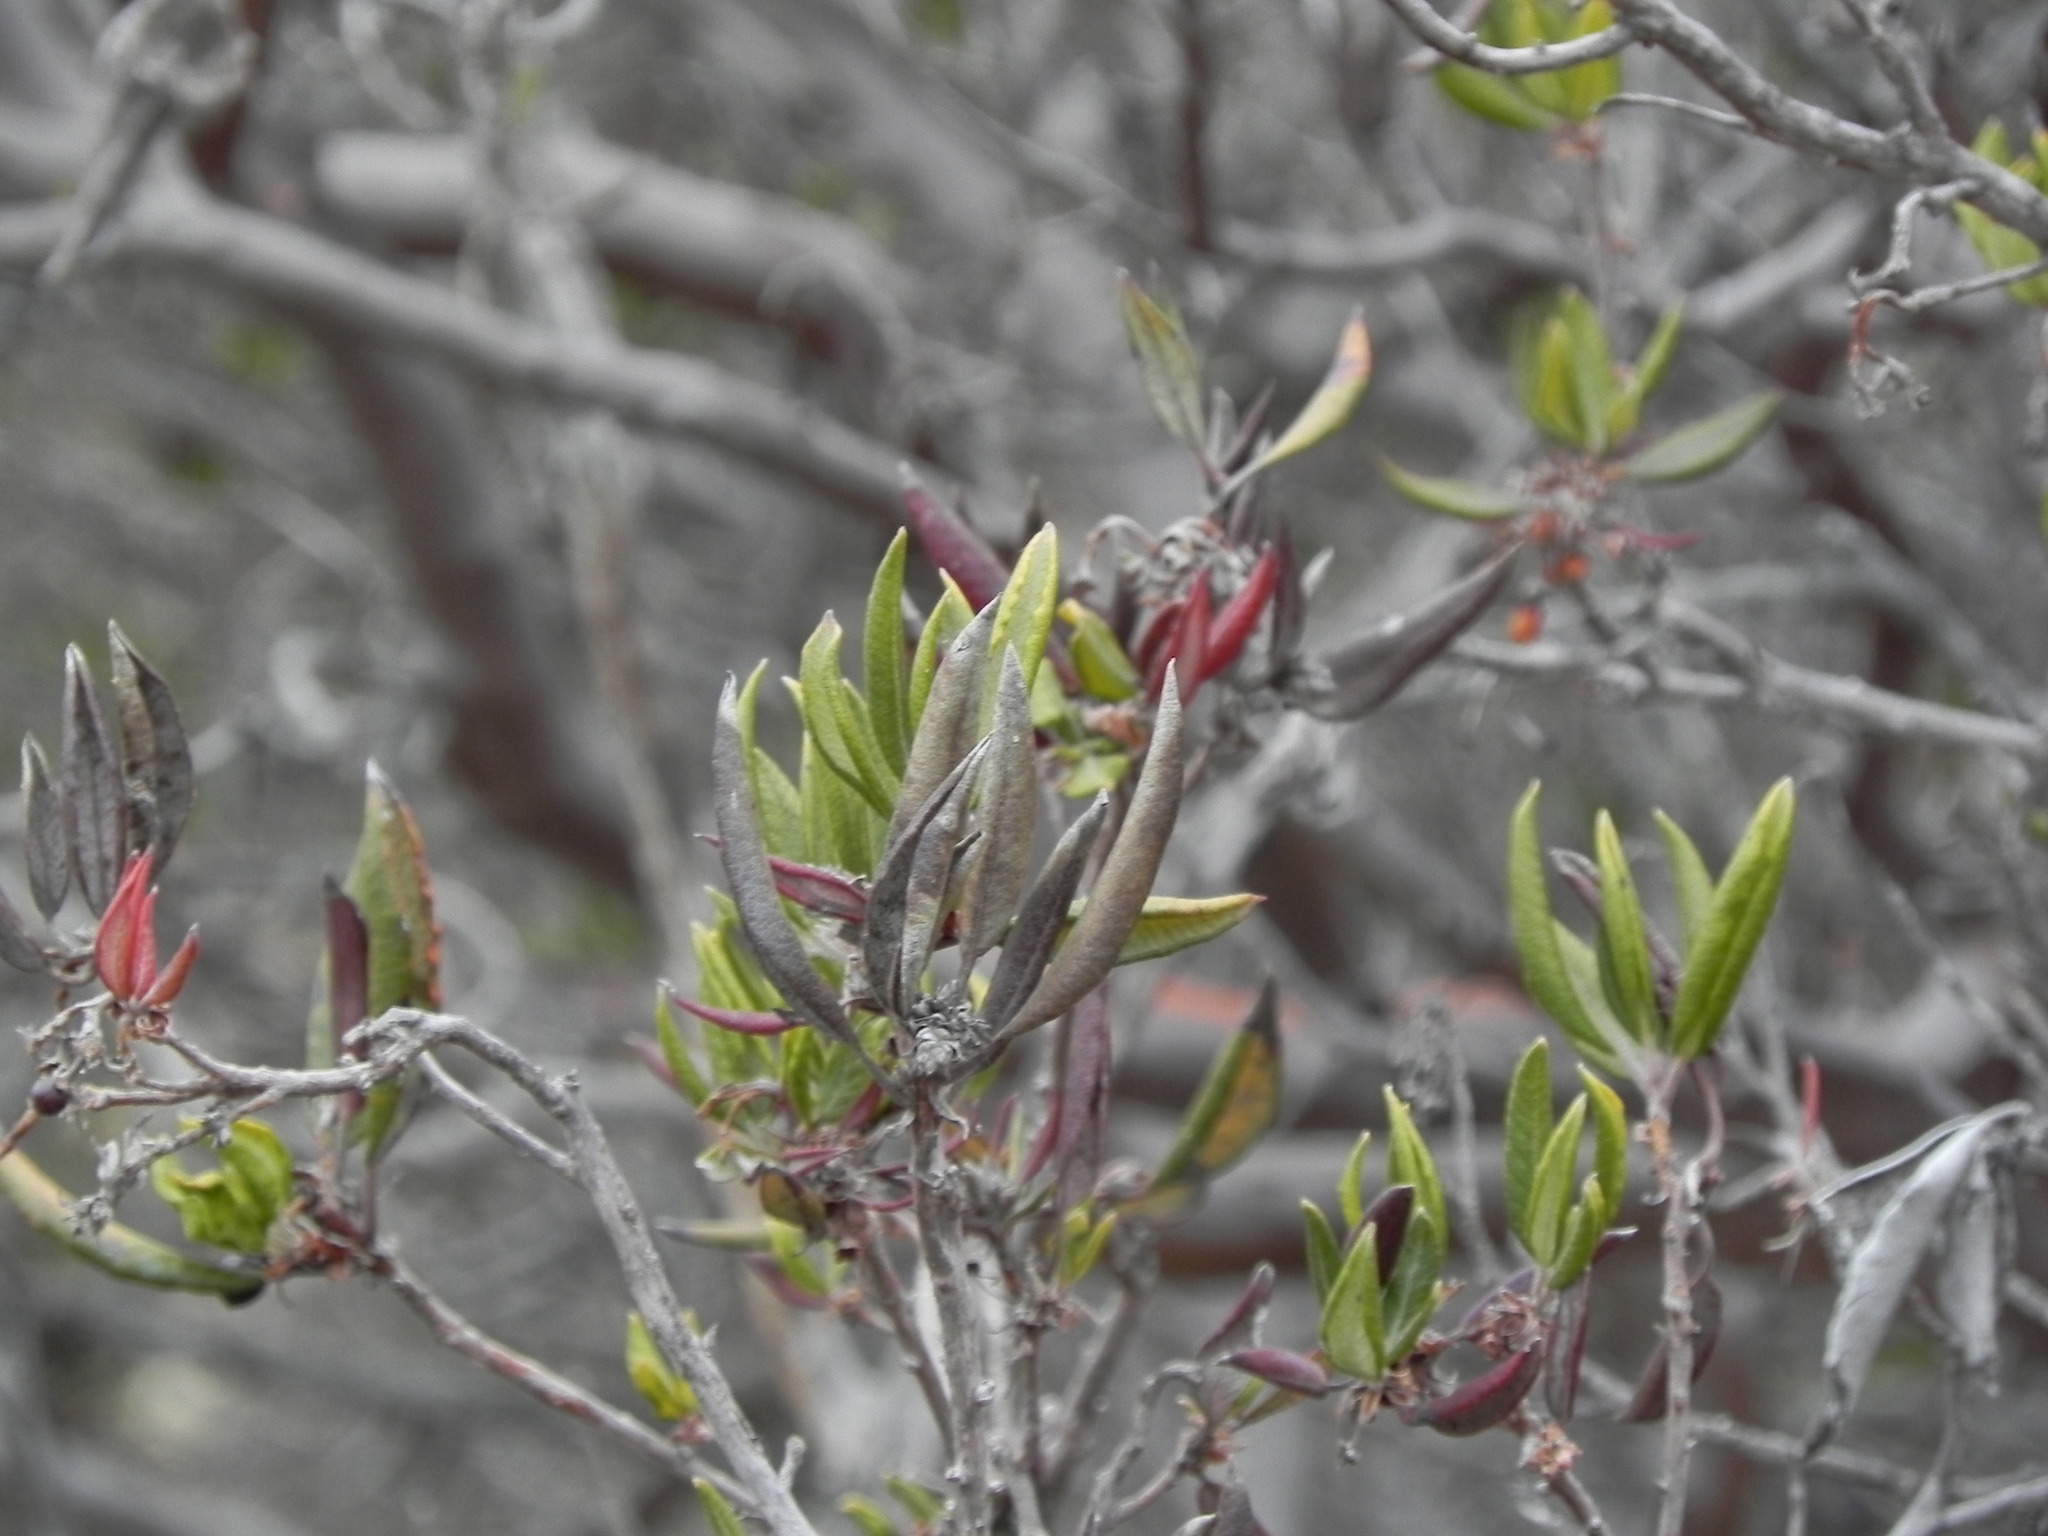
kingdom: Plantae
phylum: Tracheophyta
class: Magnoliopsida
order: Ericales
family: Ericaceae
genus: Arctostaphylos
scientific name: Arctostaphylos bicolor
